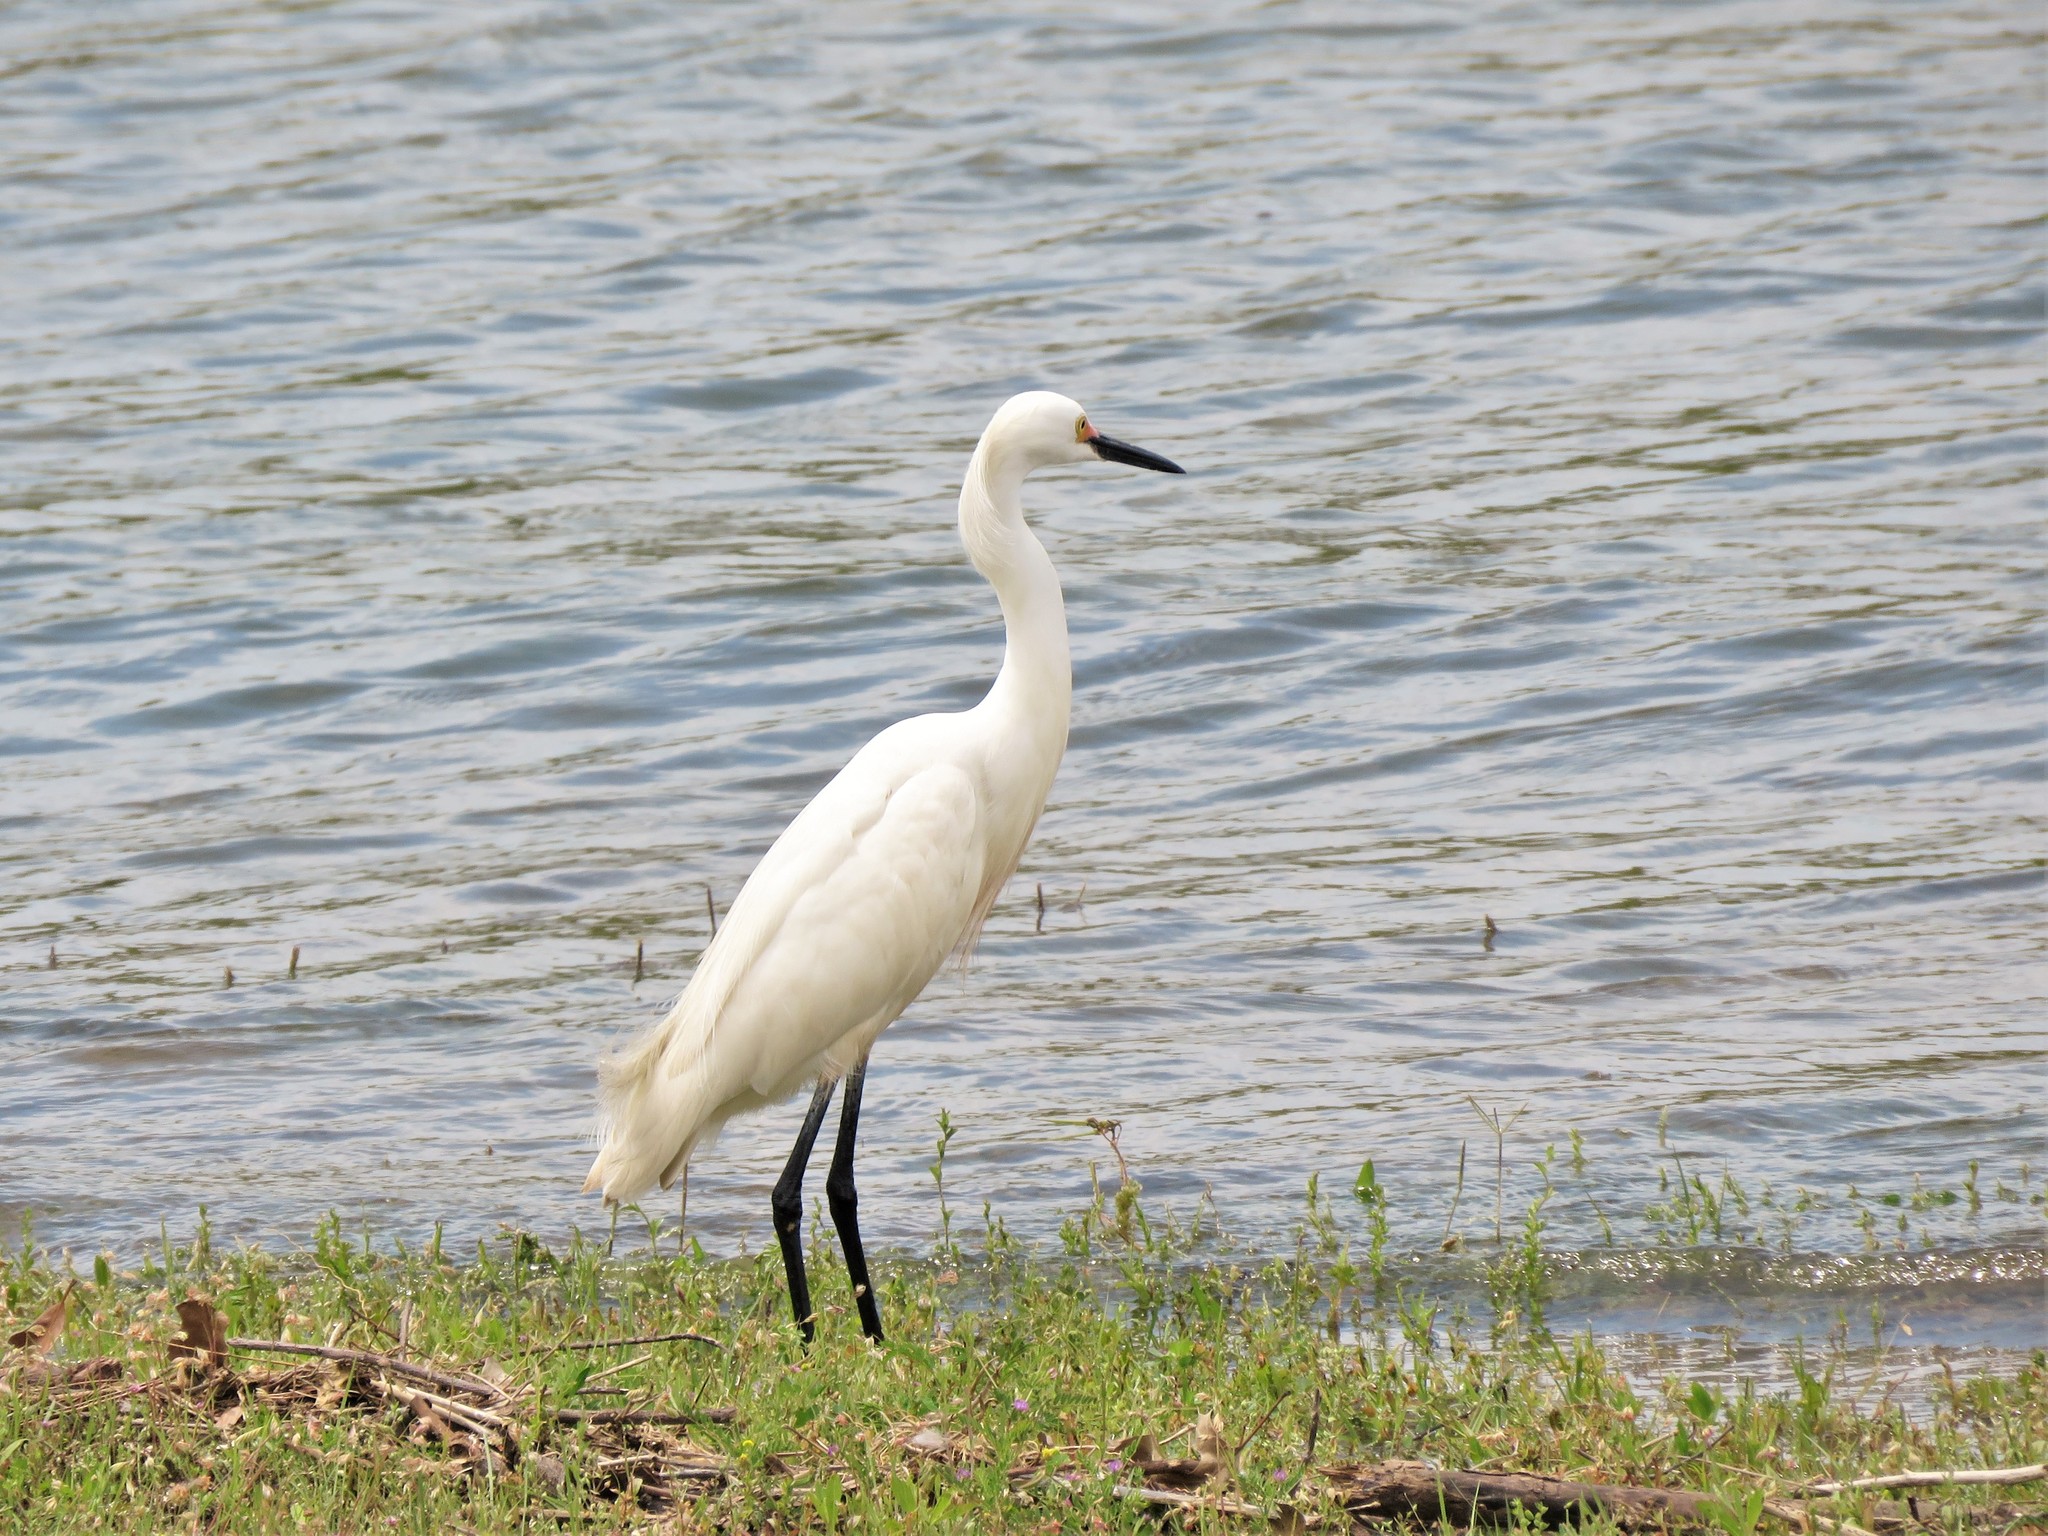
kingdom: Animalia
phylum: Chordata
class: Aves
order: Pelecaniformes
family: Ardeidae
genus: Egretta
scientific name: Egretta thula
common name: Snowy egret
